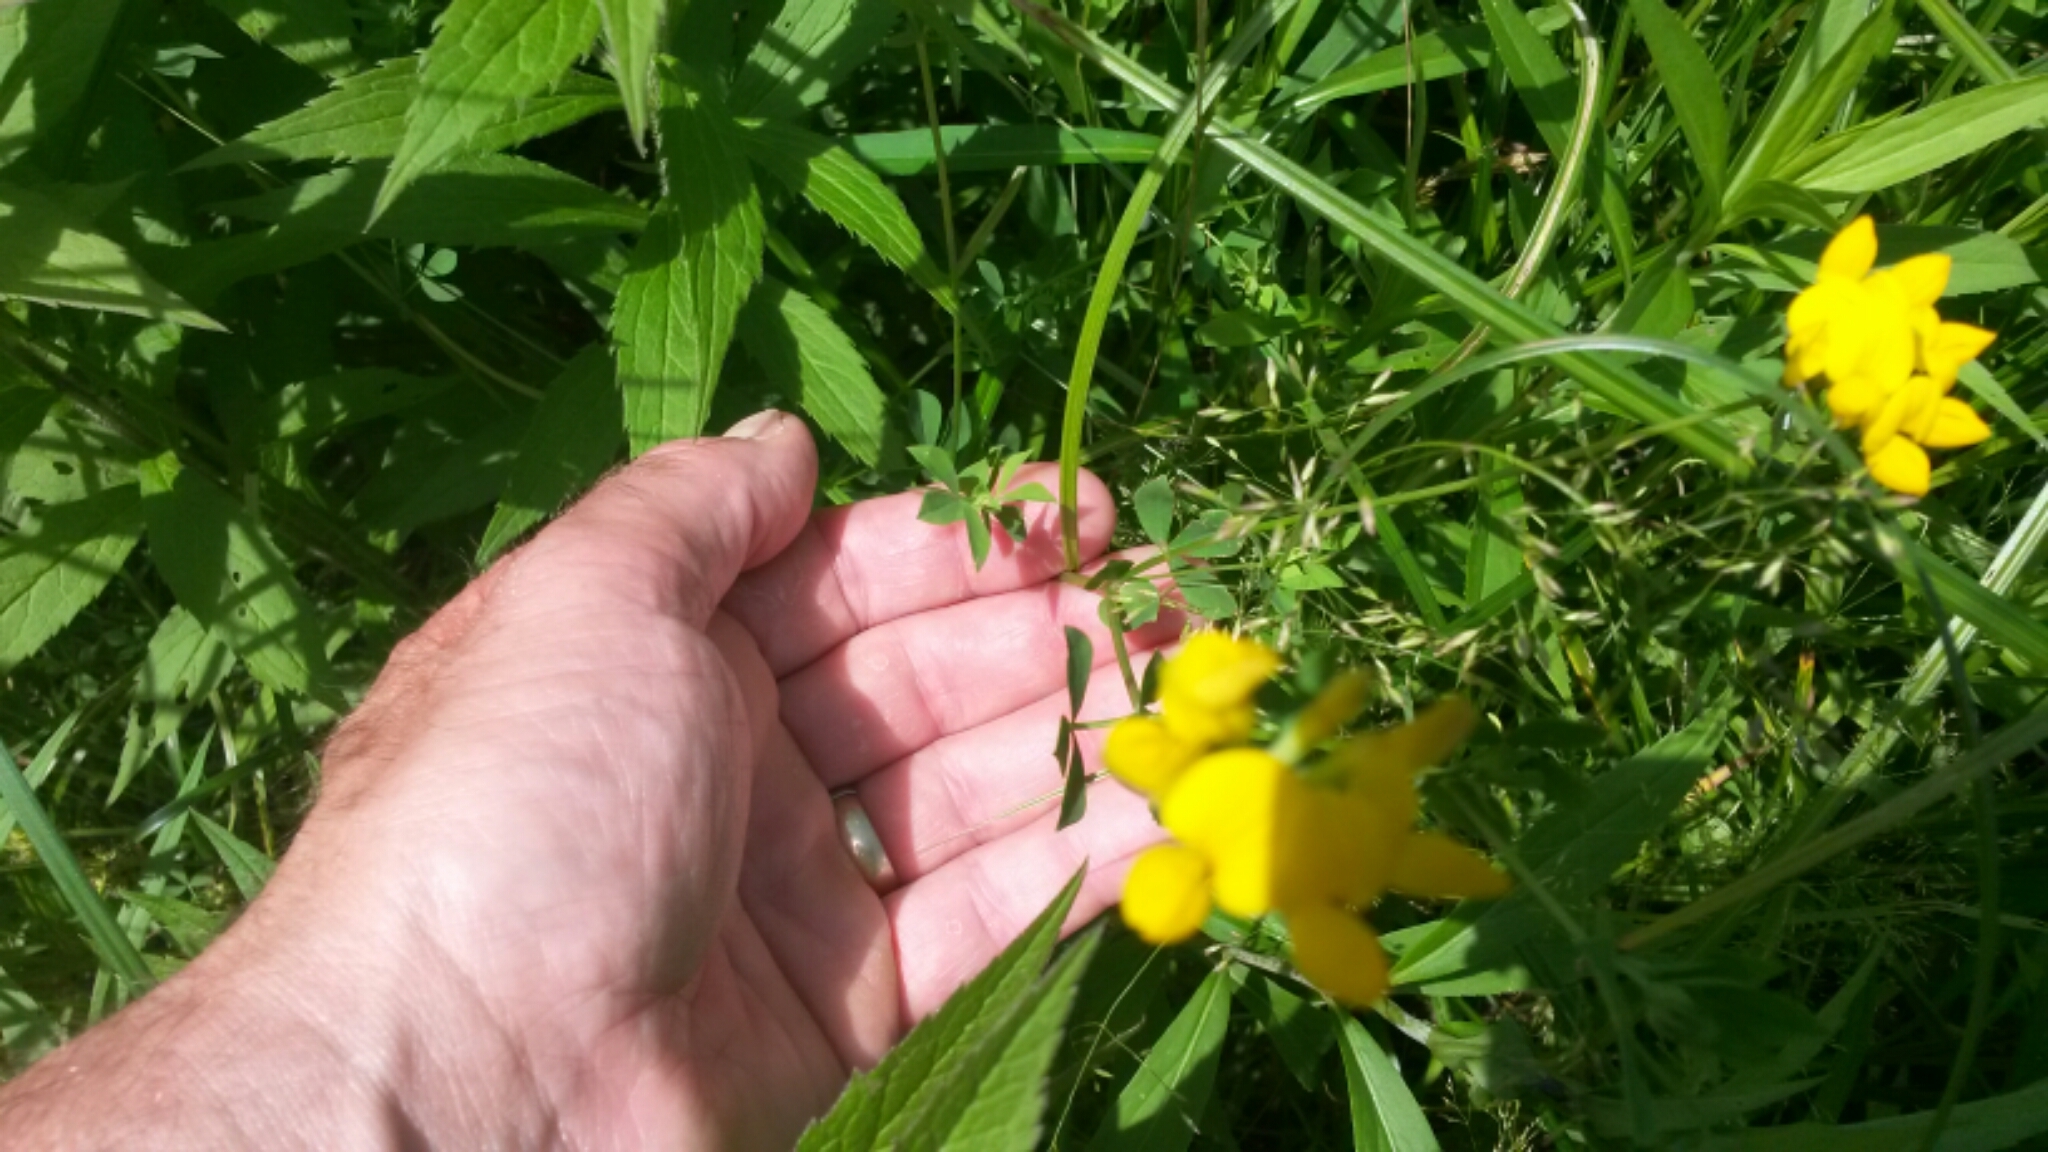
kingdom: Plantae
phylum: Tracheophyta
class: Magnoliopsida
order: Fabales
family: Fabaceae
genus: Lotus
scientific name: Lotus corniculatus
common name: Common bird's-foot-trefoil
